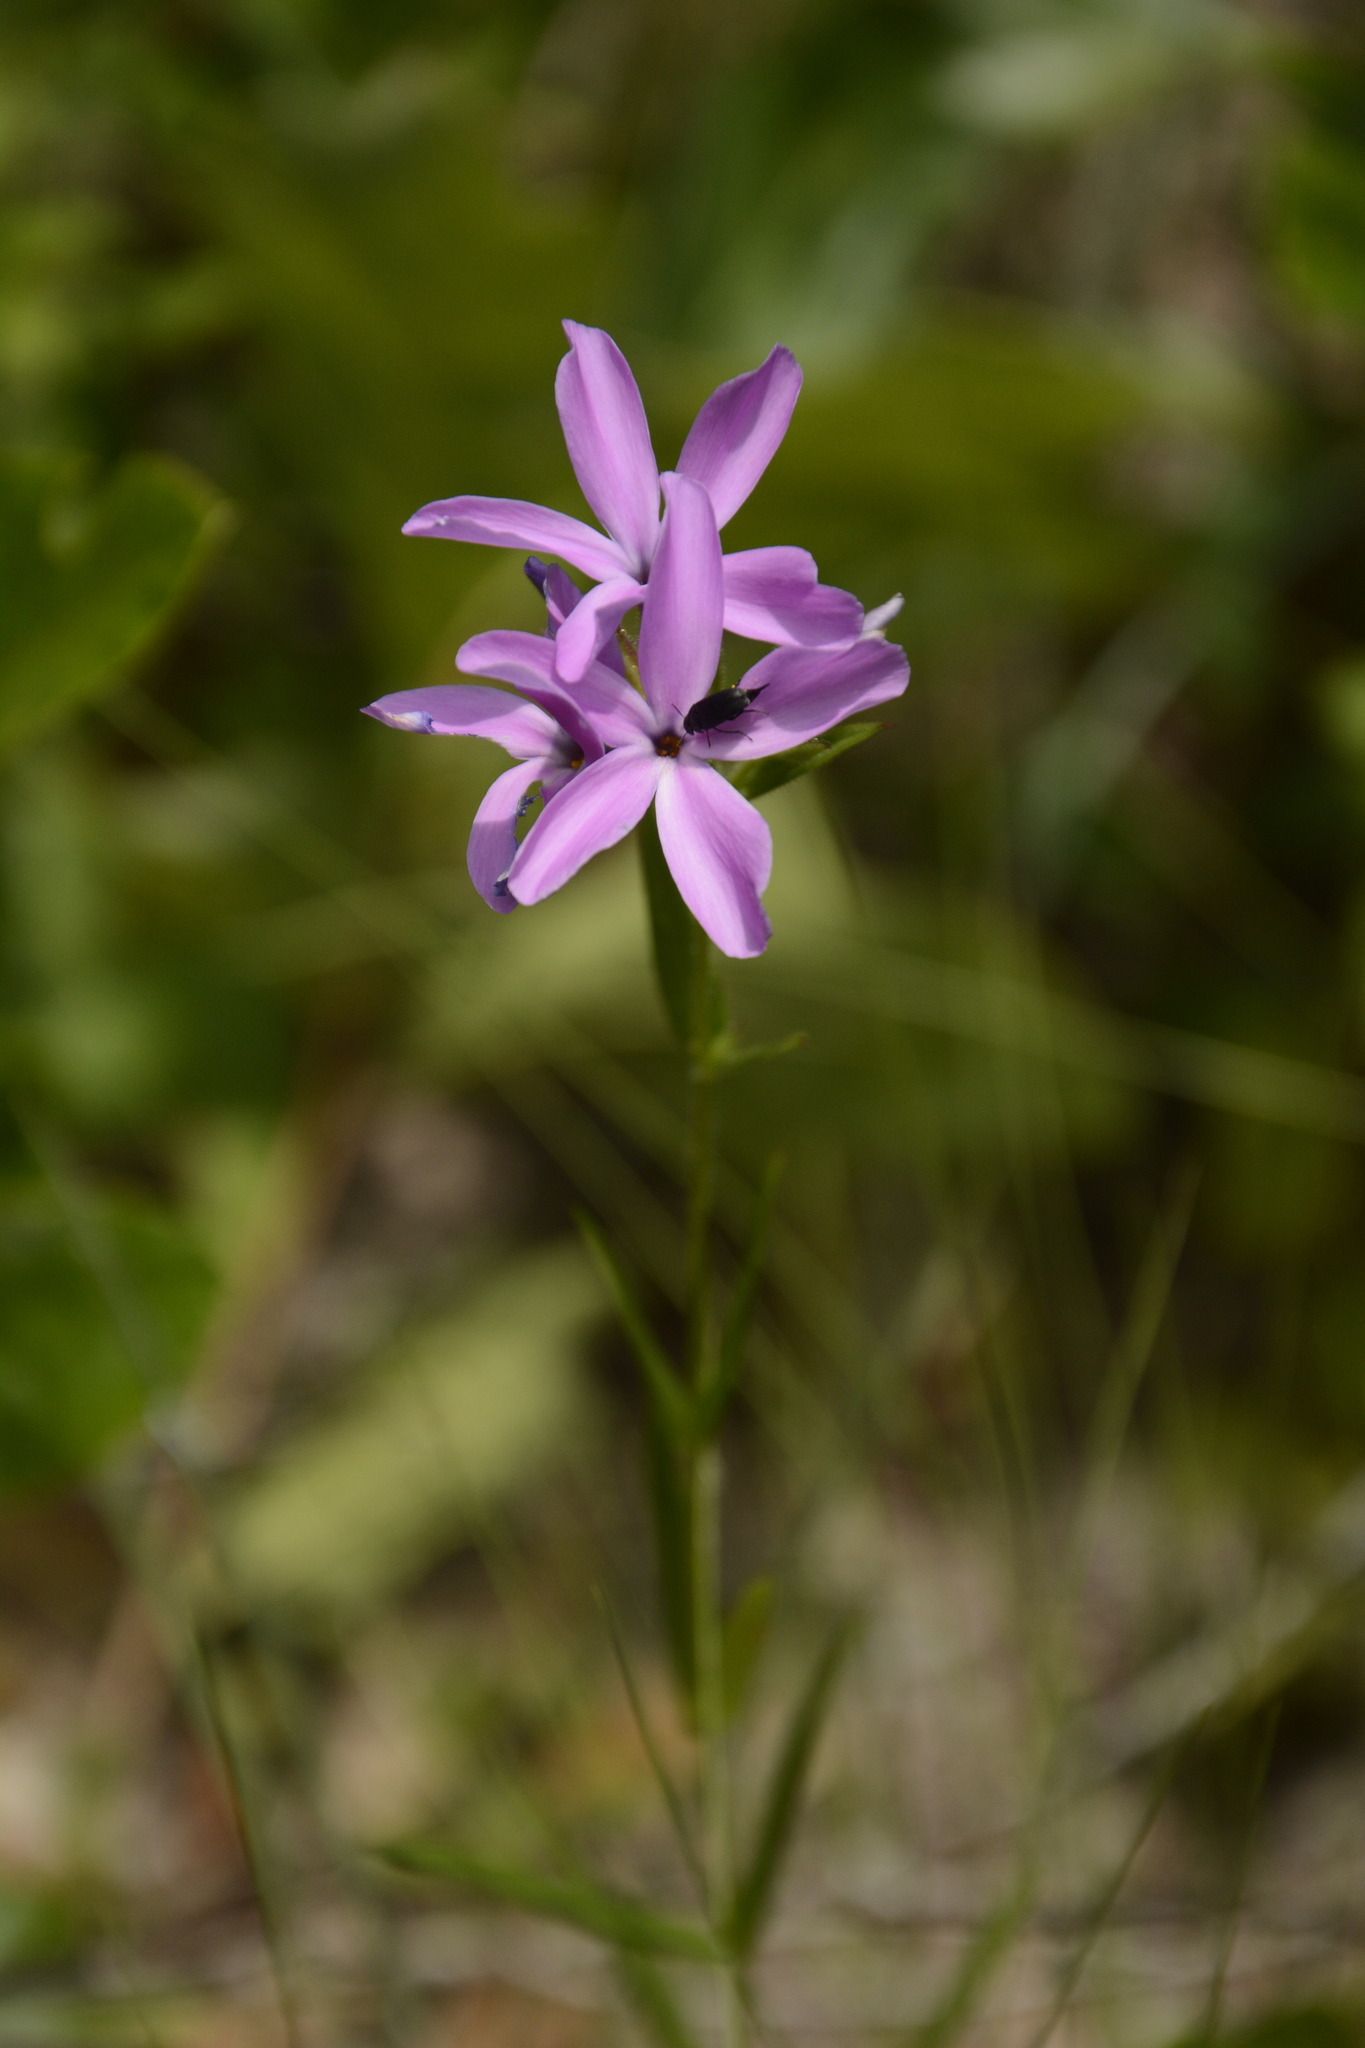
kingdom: Plantae
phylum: Tracheophyta
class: Magnoliopsida
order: Ericales
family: Polemoniaceae
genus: Phlox
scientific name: Phlox pilosa
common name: Prairie phlox
